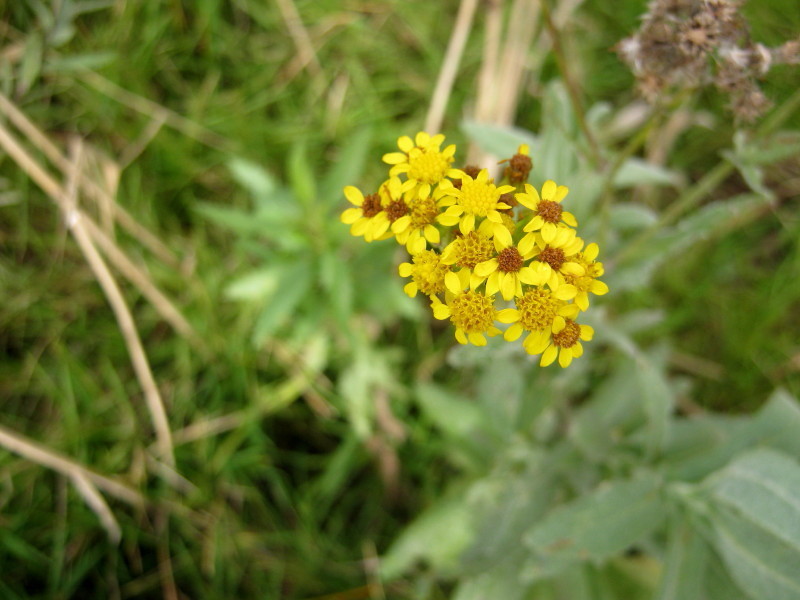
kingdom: Plantae
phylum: Tracheophyta
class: Magnoliopsida
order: Asterales
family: Asteraceae
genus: Senecio
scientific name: Senecio lanceus
